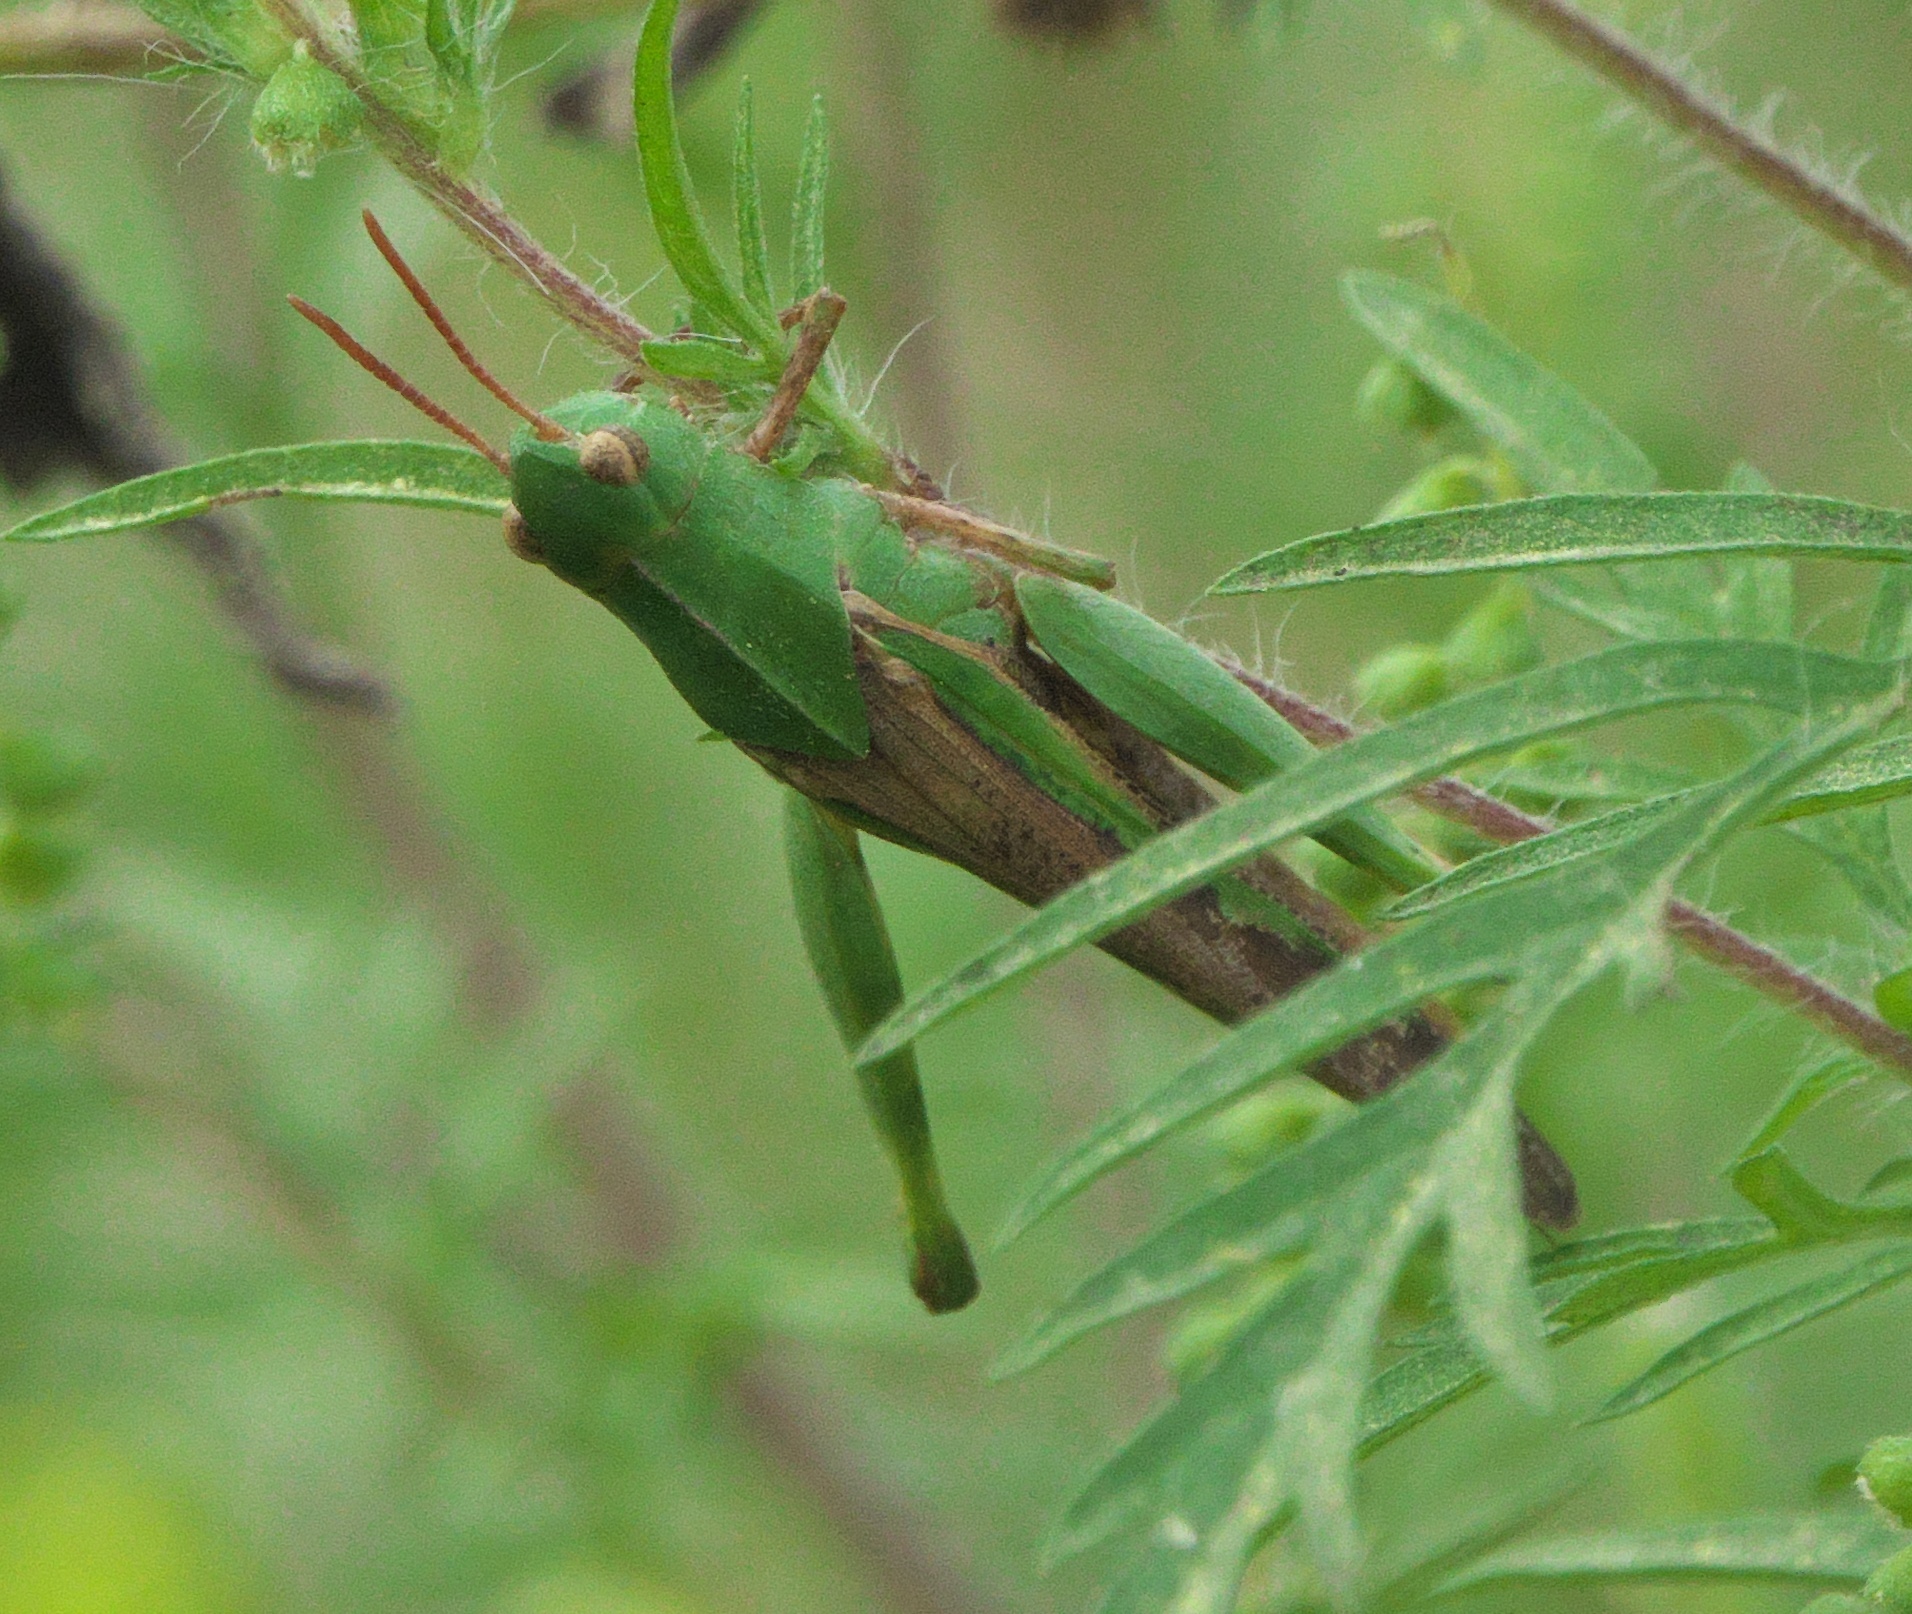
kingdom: Animalia
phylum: Arthropoda
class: Insecta
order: Orthoptera
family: Acrididae
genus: Chortophaga
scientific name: Chortophaga viridifasciata
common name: Green-striped grasshopper
